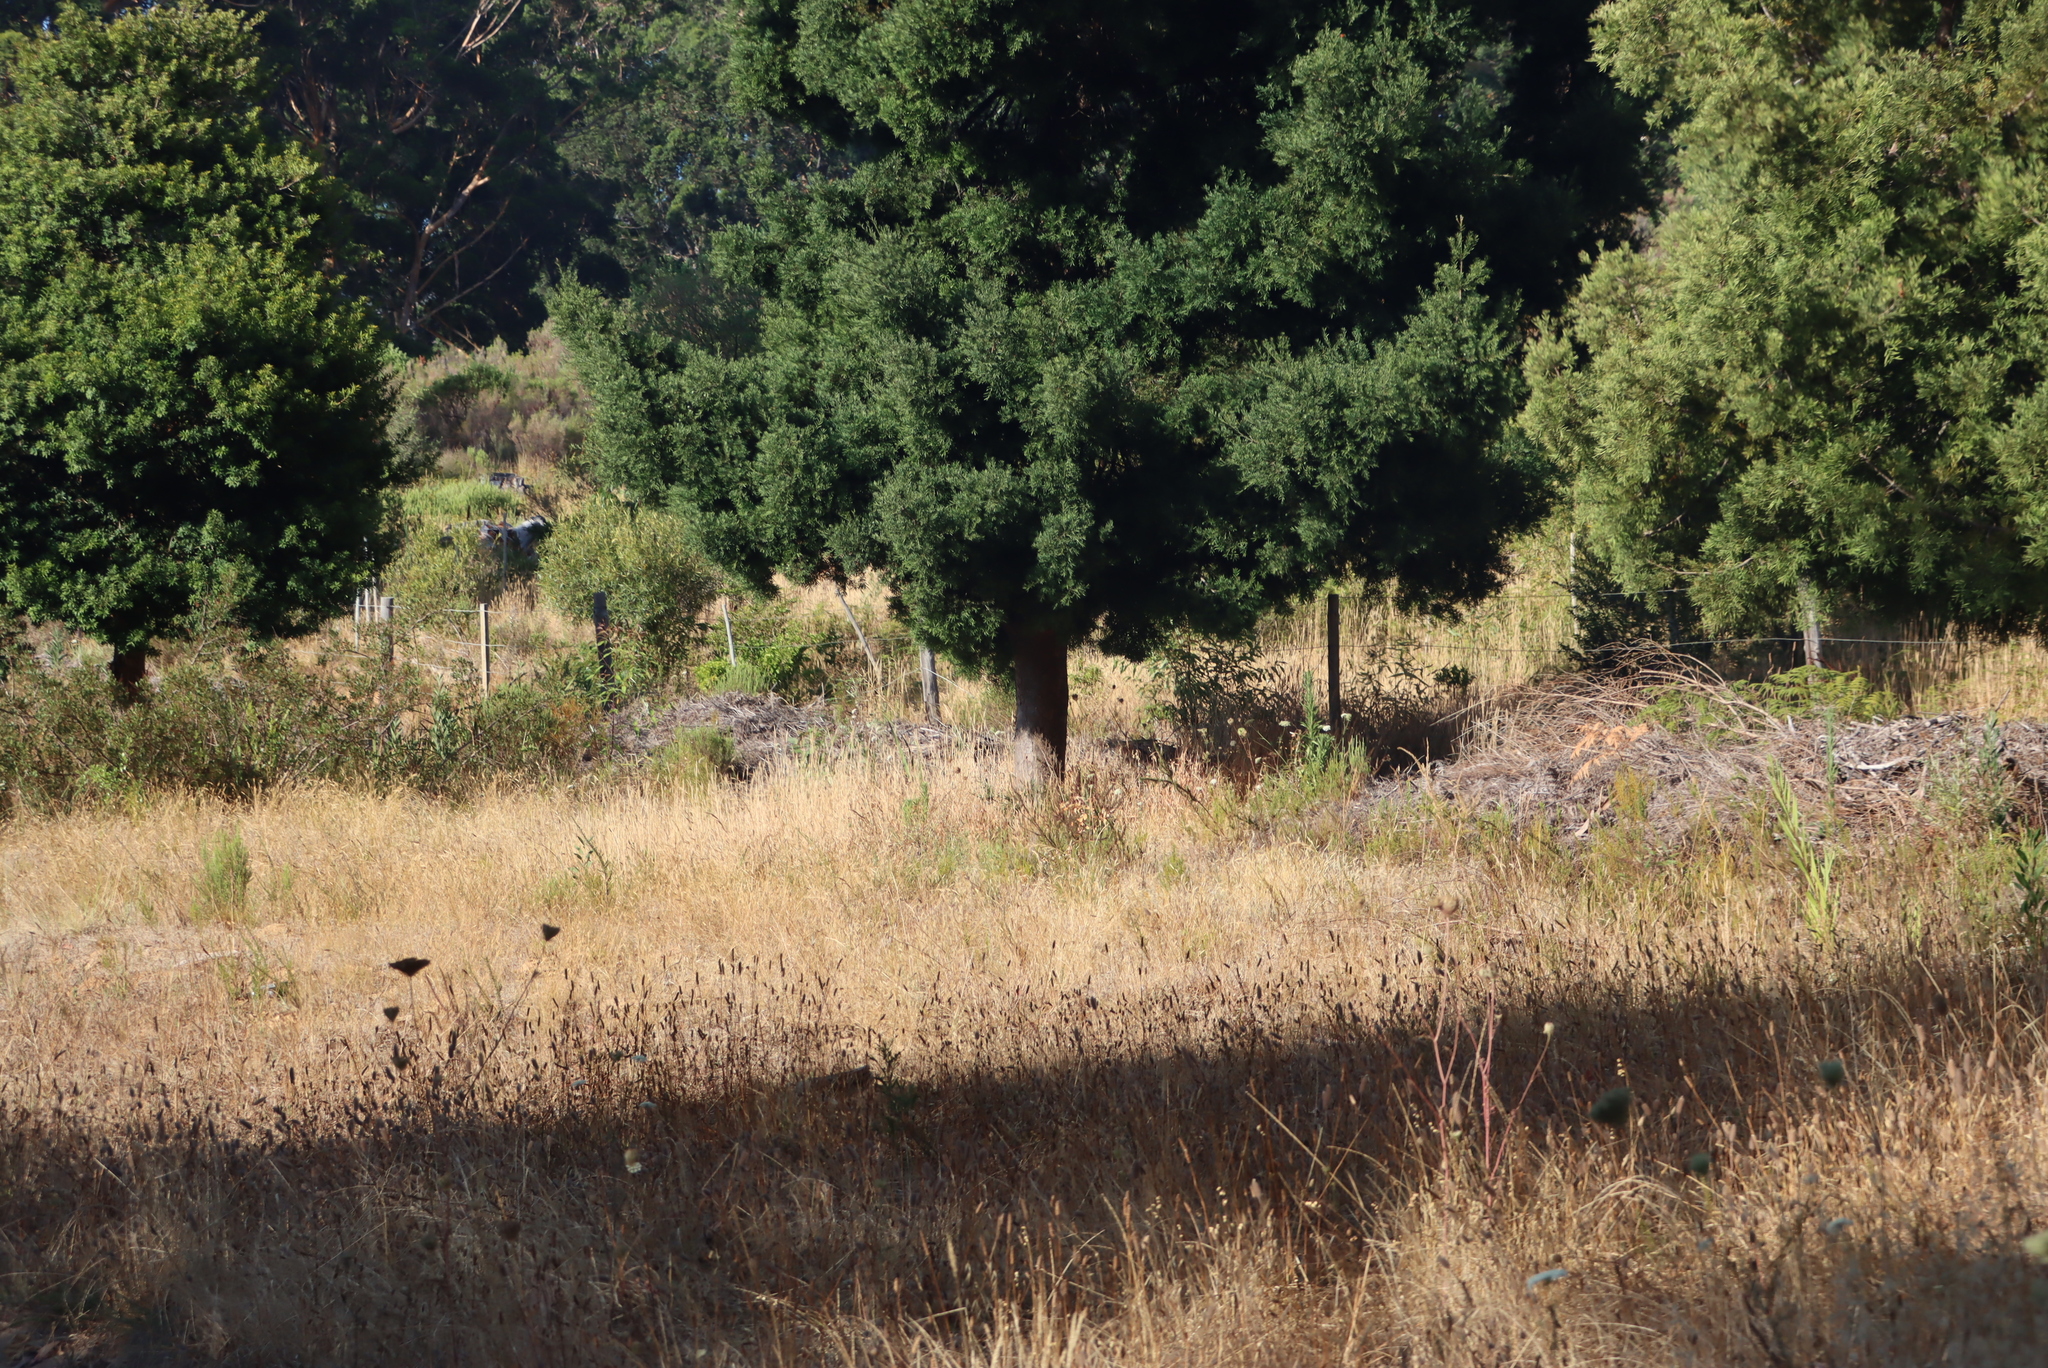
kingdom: Plantae
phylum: Tracheophyta
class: Magnoliopsida
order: Apiales
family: Apiaceae
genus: Daucus
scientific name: Daucus carota
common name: Wild carrot
